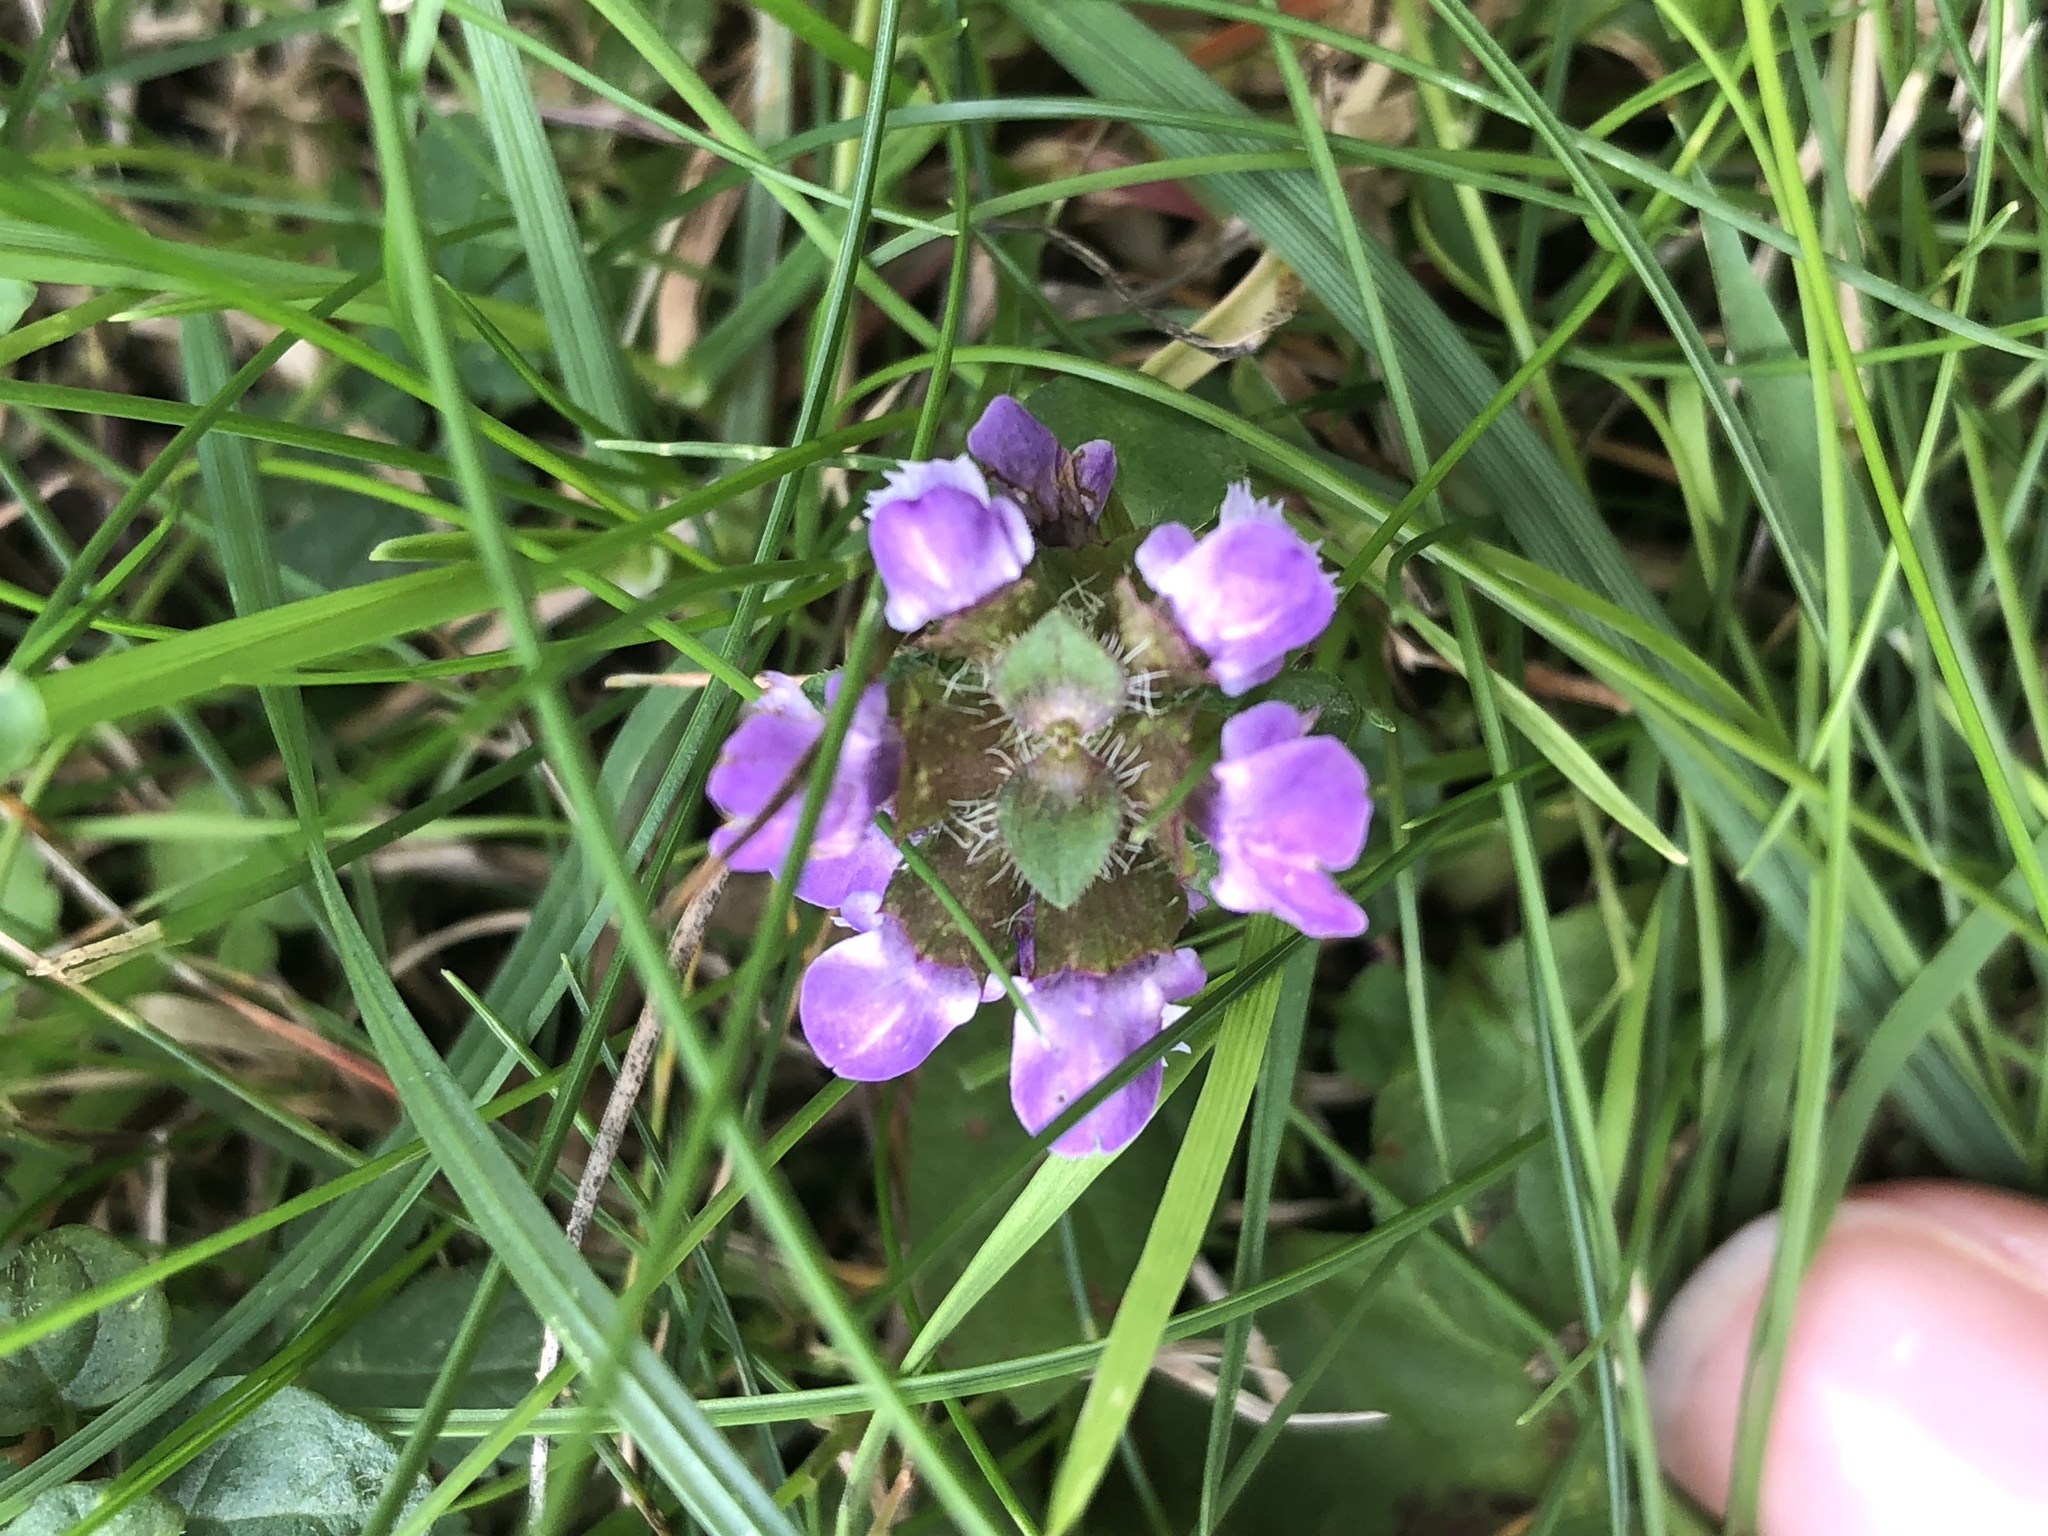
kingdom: Plantae
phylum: Tracheophyta
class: Magnoliopsida
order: Lamiales
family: Lamiaceae
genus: Prunella
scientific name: Prunella vulgaris
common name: Heal-all
